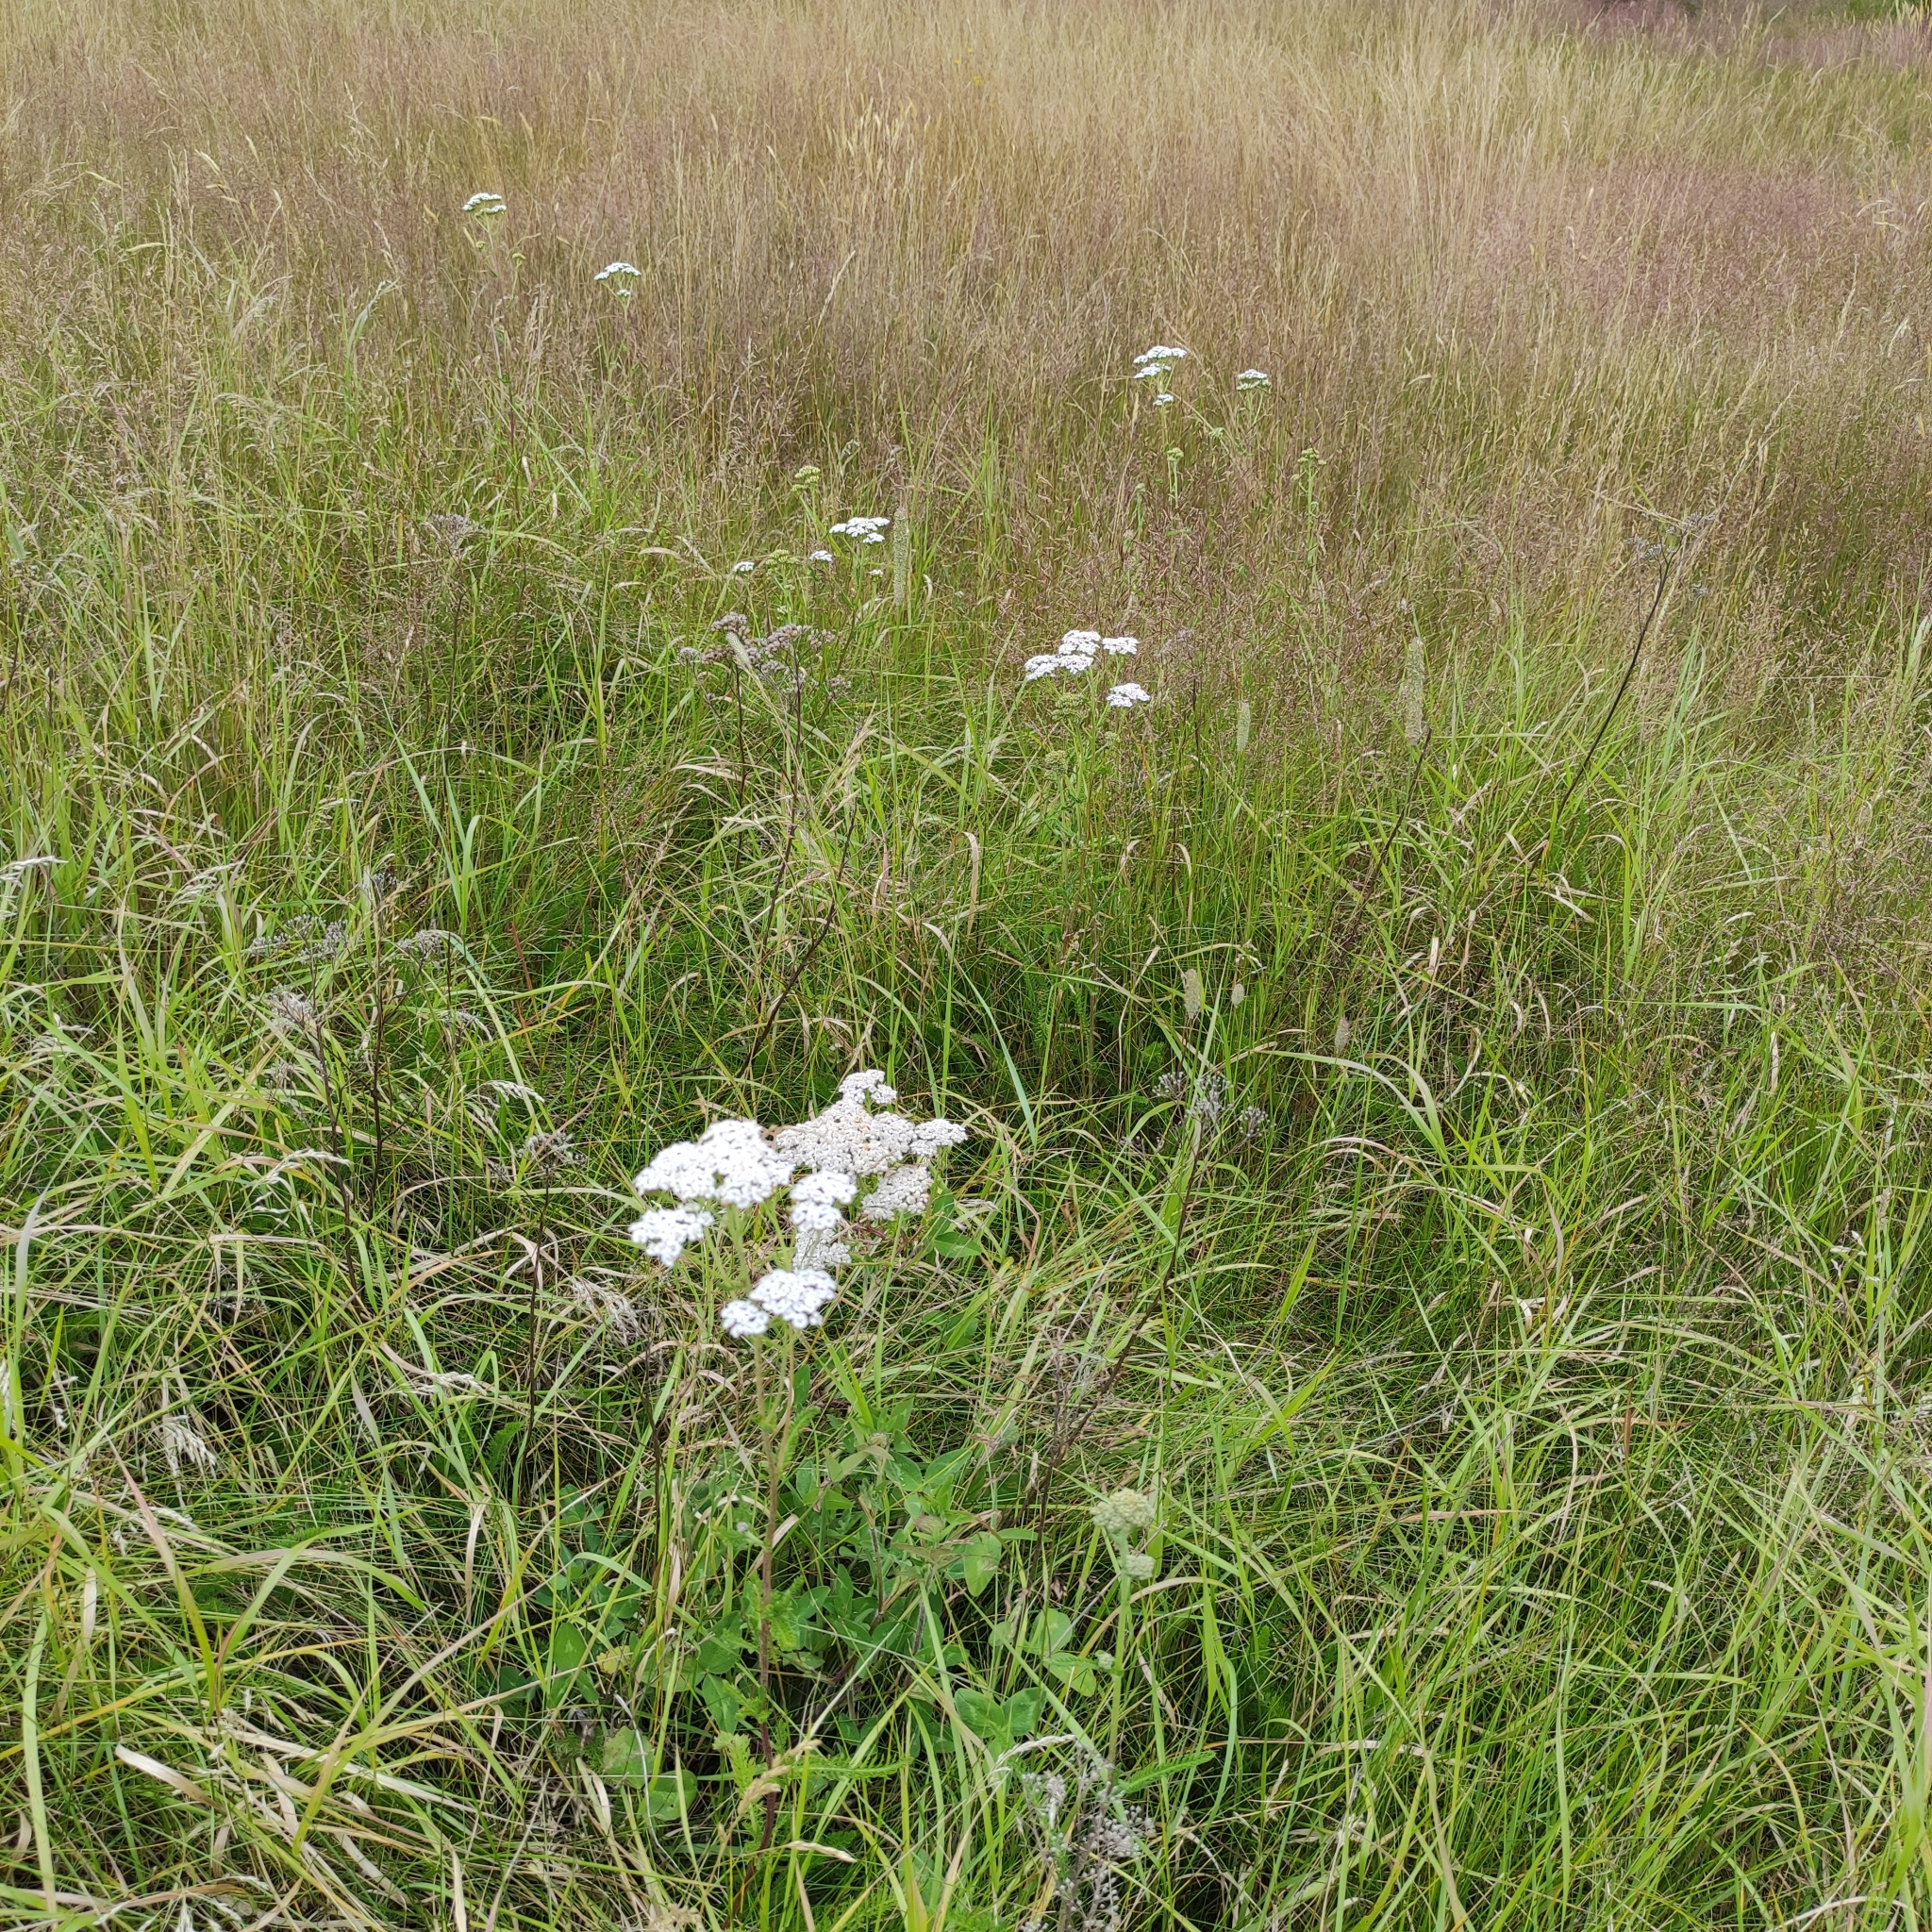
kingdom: Plantae
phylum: Tracheophyta
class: Magnoliopsida
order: Asterales
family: Asteraceae
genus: Achillea
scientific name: Achillea millefolium
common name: Yarrow
